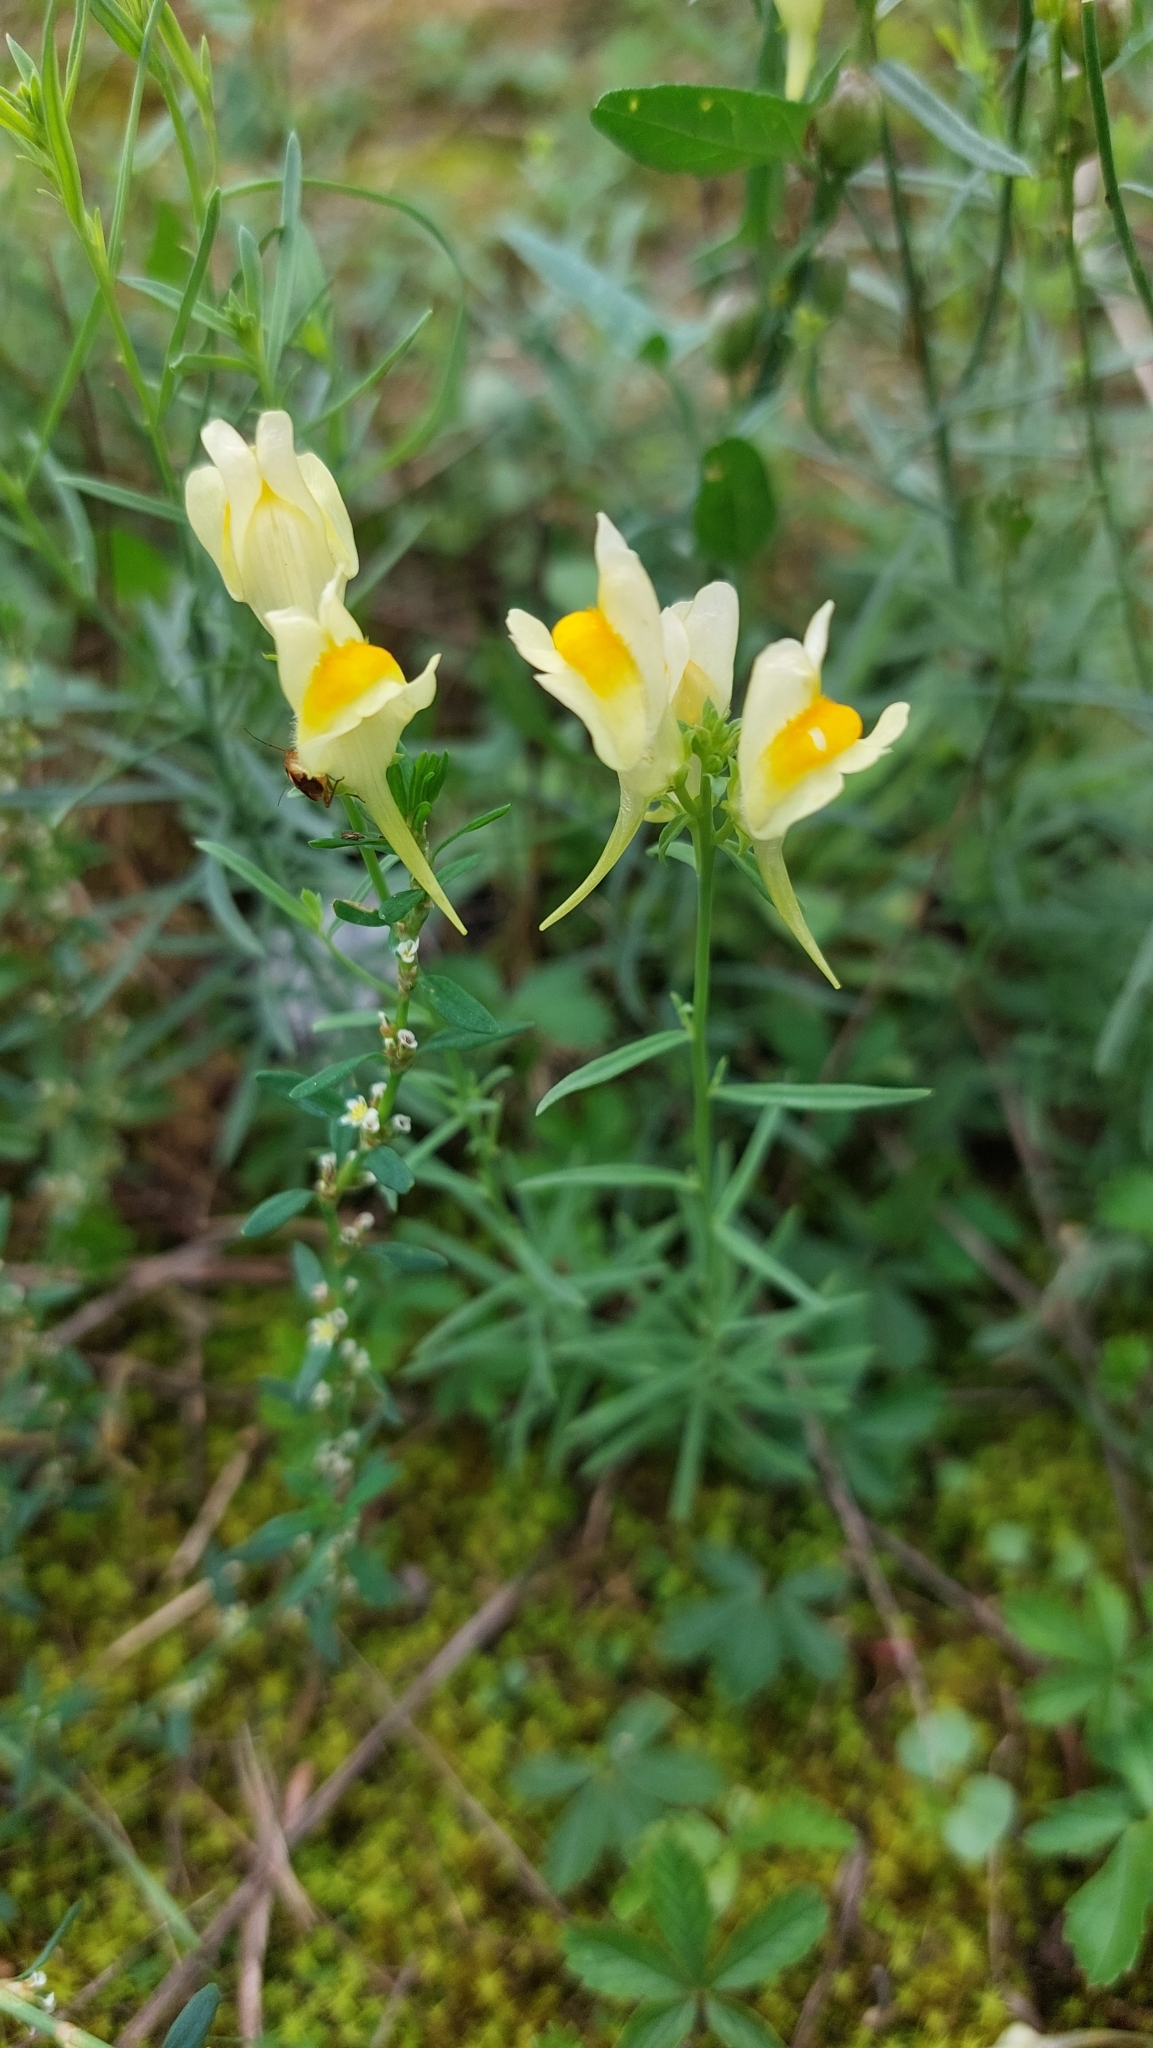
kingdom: Plantae
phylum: Tracheophyta
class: Magnoliopsida
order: Lamiales
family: Plantaginaceae
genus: Linaria
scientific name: Linaria vulgaris
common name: Butter and eggs
